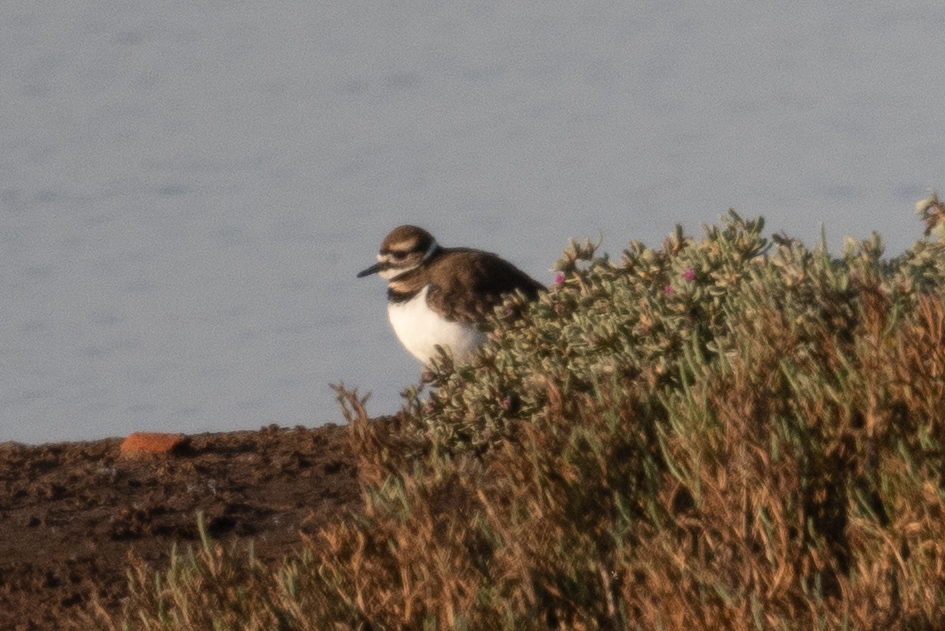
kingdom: Animalia
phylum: Chordata
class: Aves
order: Charadriiformes
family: Charadriidae
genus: Charadrius
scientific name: Charadrius vociferus
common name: Killdeer
